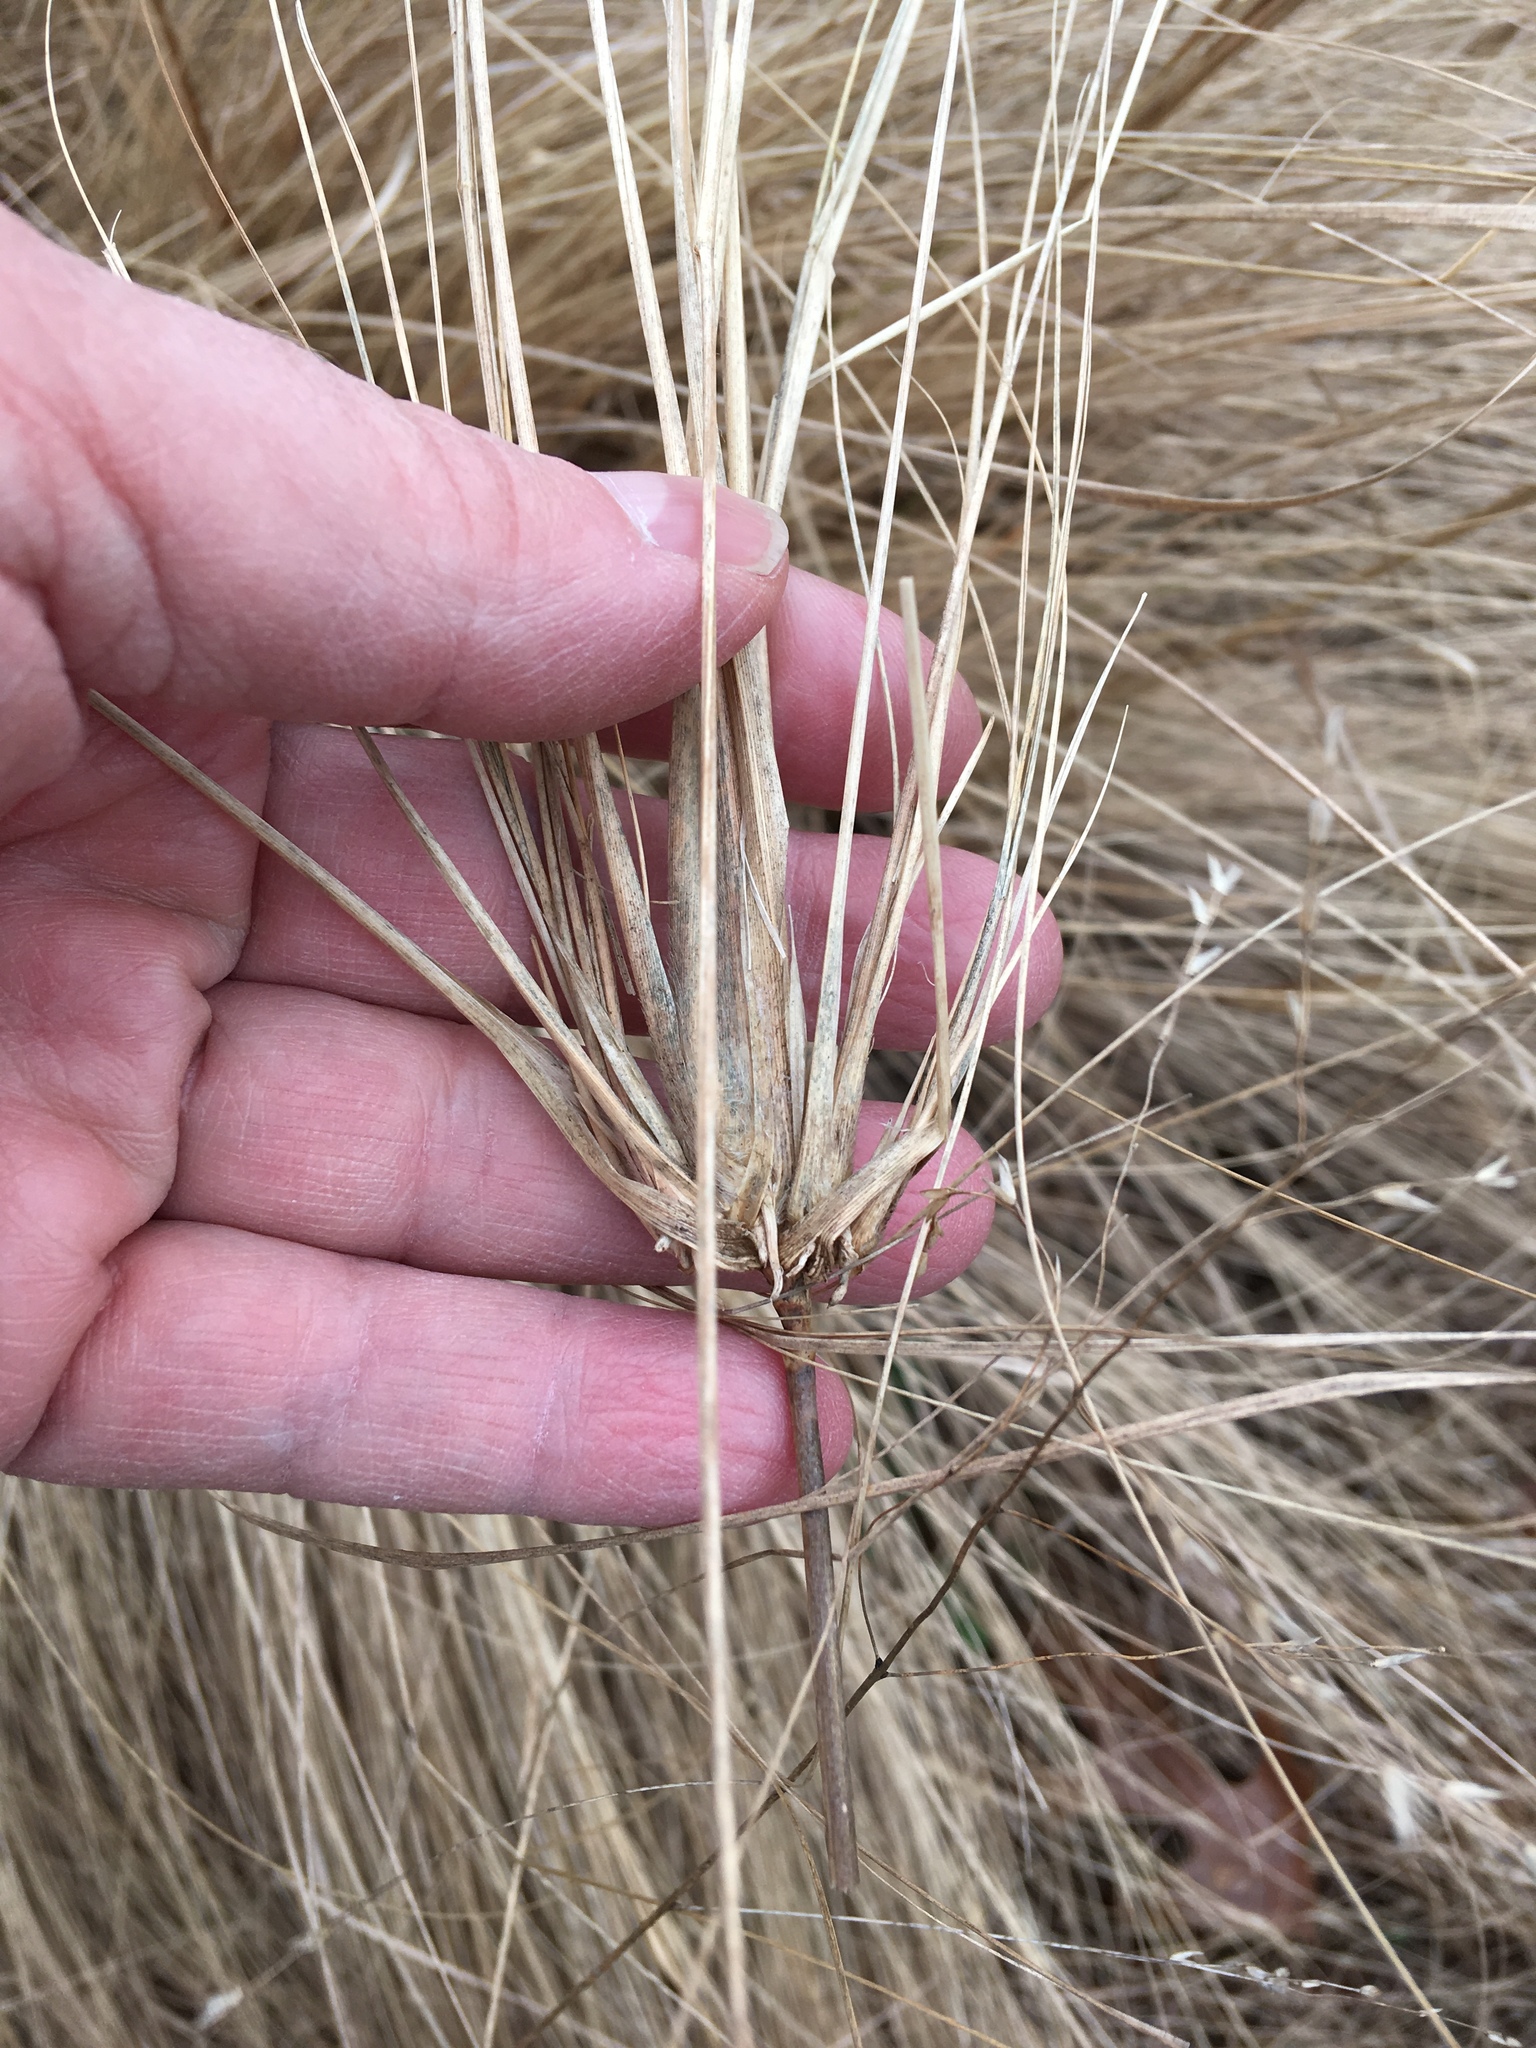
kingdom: Plantae
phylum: Tracheophyta
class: Liliopsida
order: Poales
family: Poaceae
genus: Eragrostis
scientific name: Eragrostis curvula
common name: African love-grass
